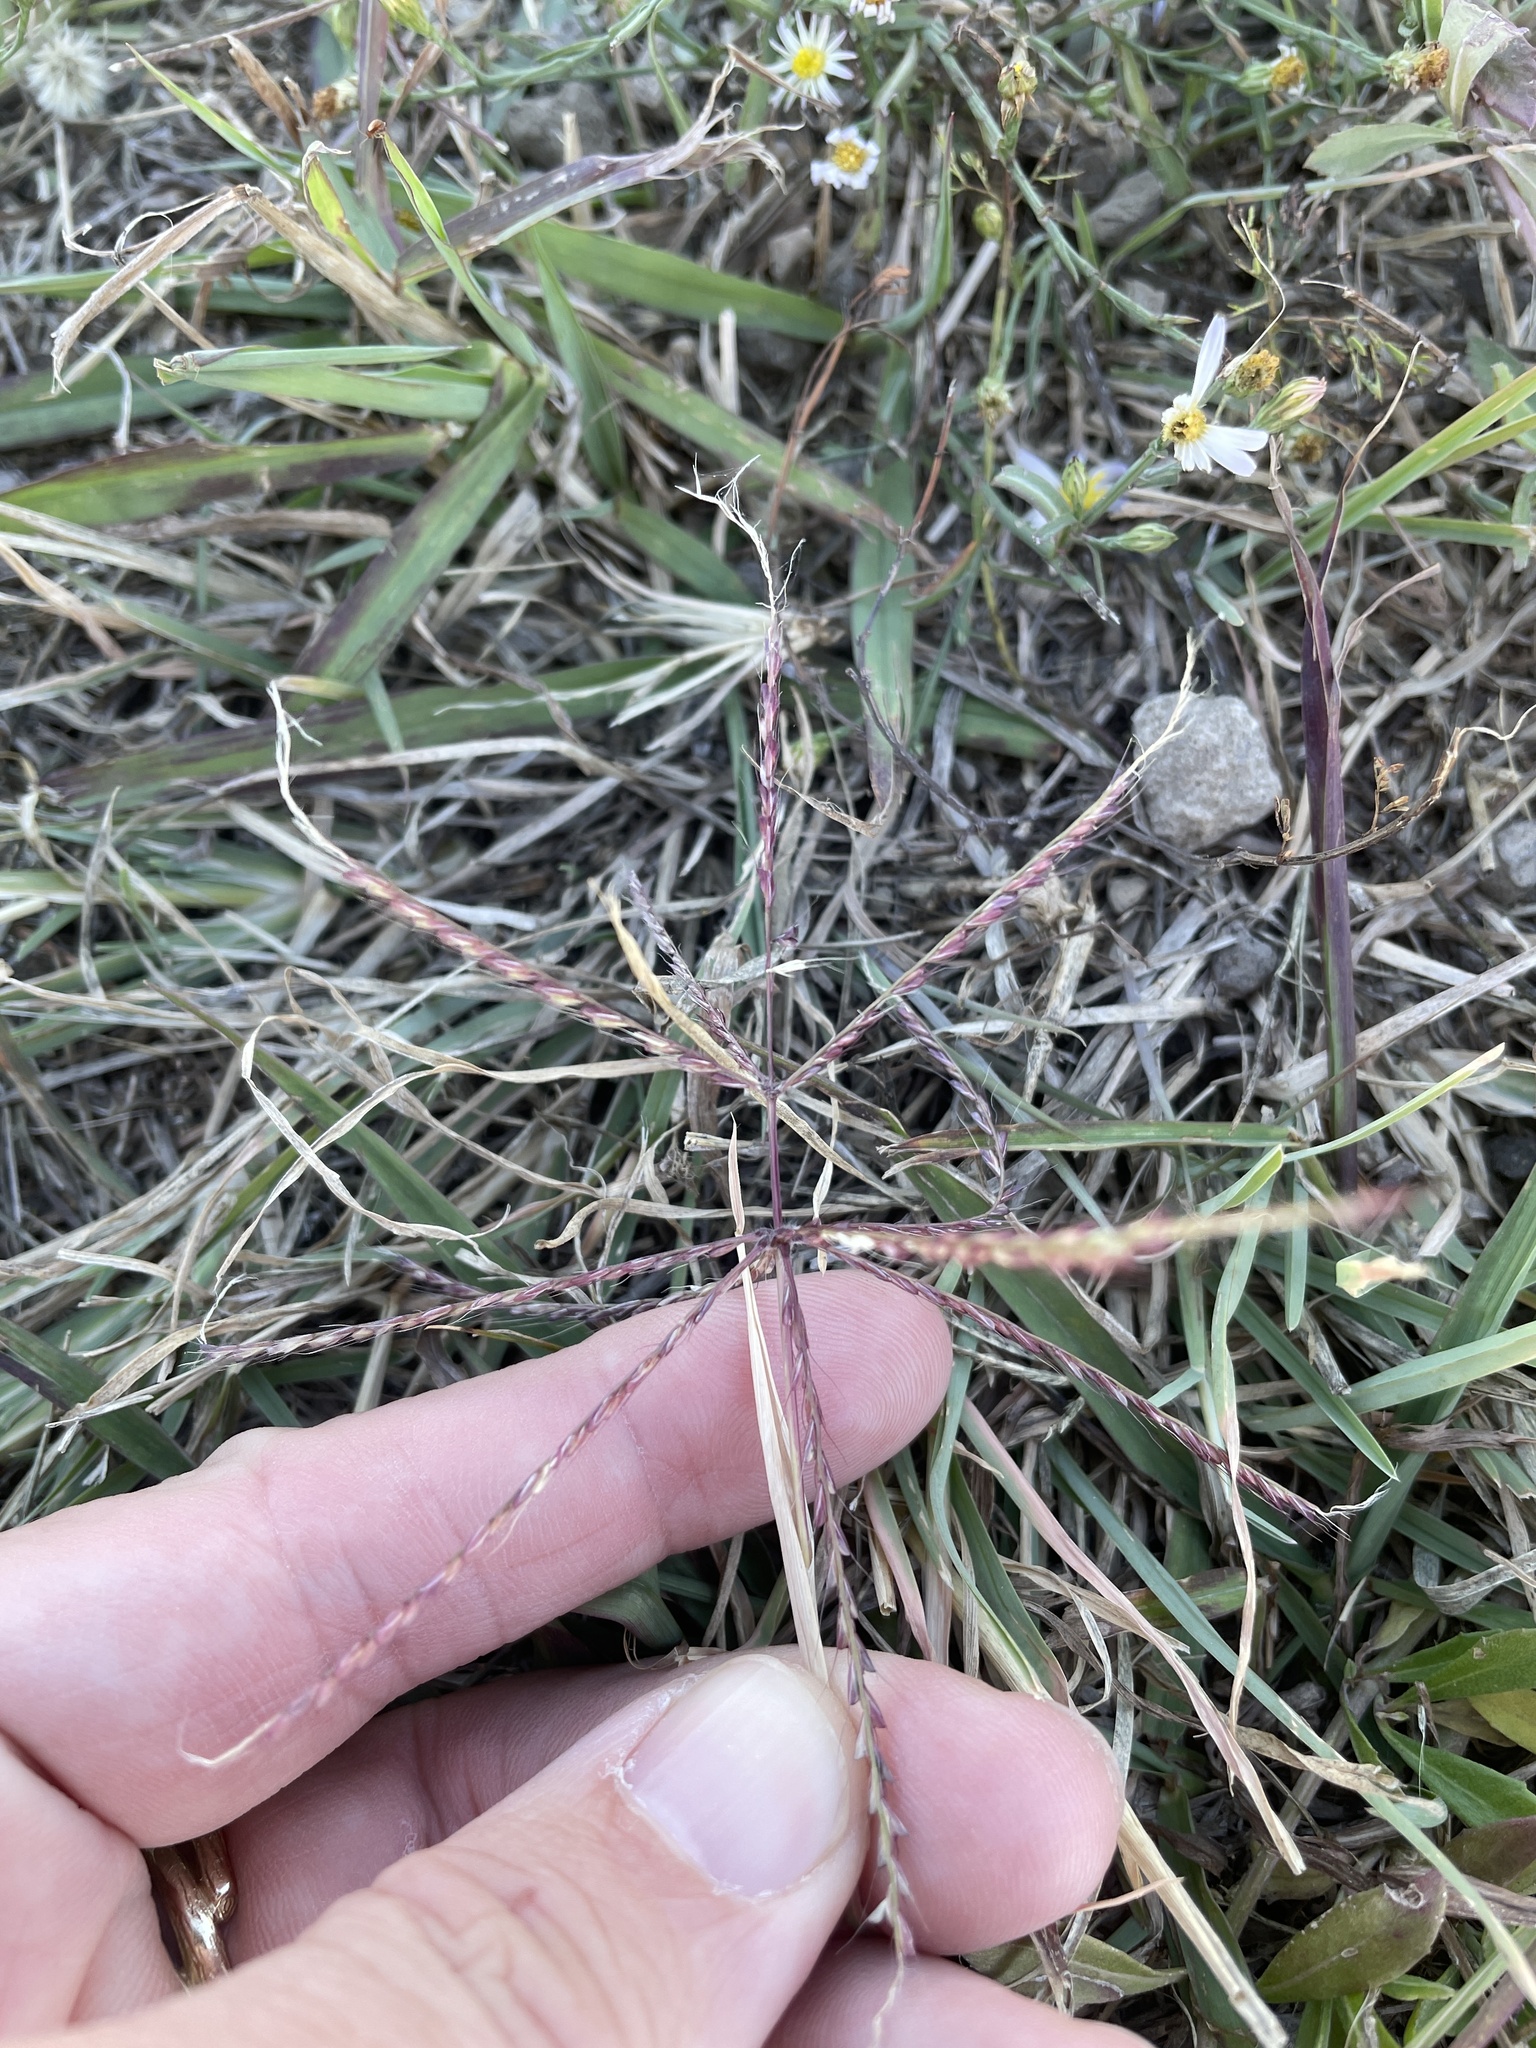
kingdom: Plantae
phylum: Tracheophyta
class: Liliopsida
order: Poales
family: Poaceae
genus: Chloris
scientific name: Chloris verticillata
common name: Tumble windmill grass
